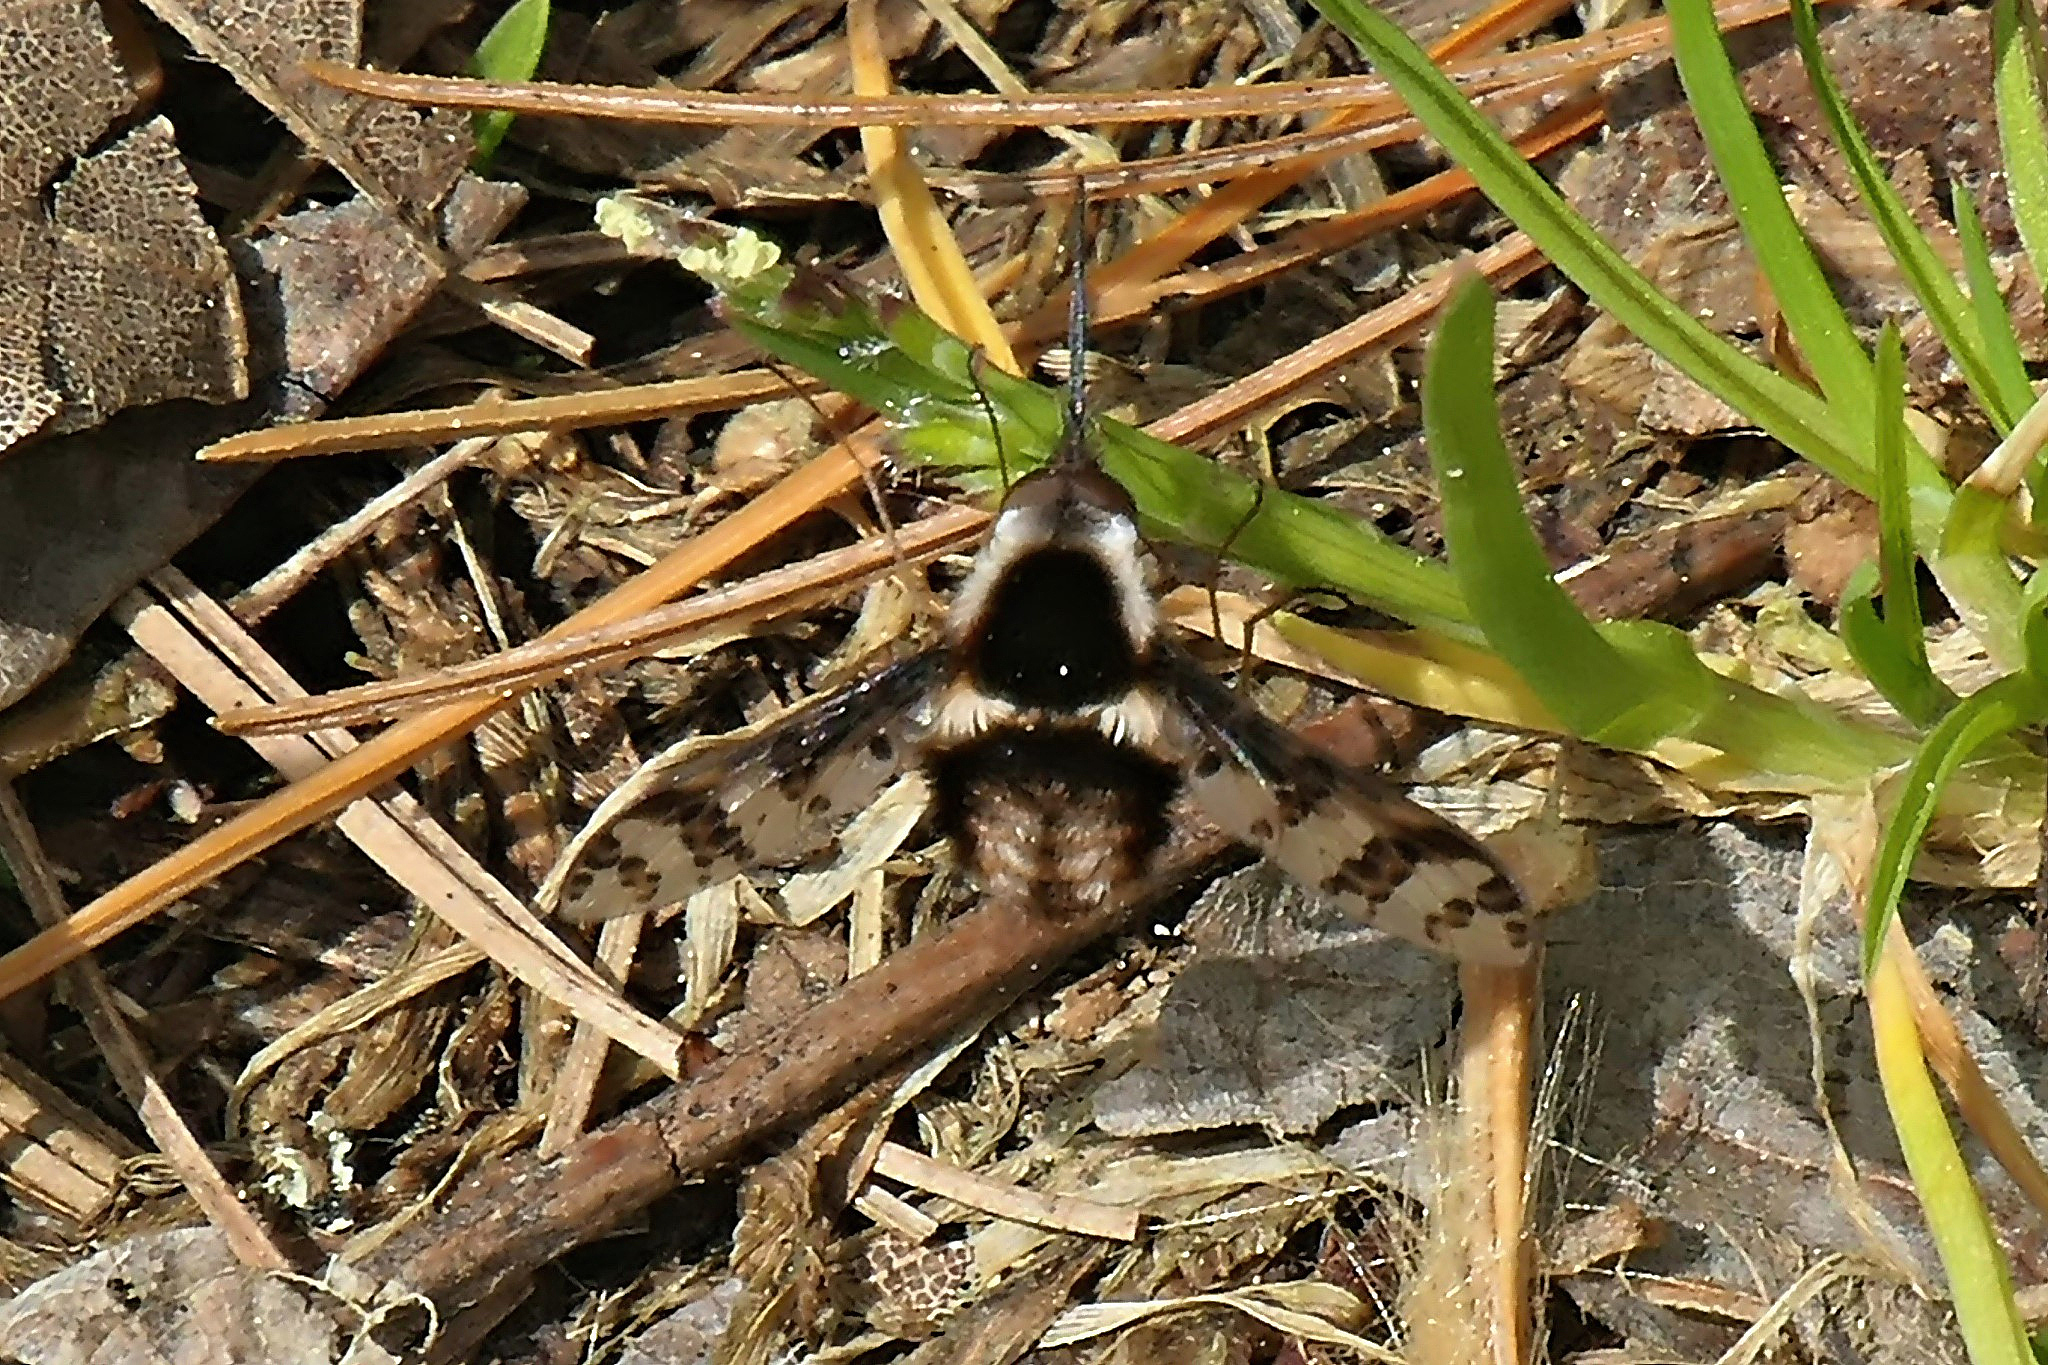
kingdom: Animalia
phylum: Arthropoda
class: Insecta
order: Diptera
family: Bombyliidae
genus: Bombylius
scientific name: Bombylius pulchellus
